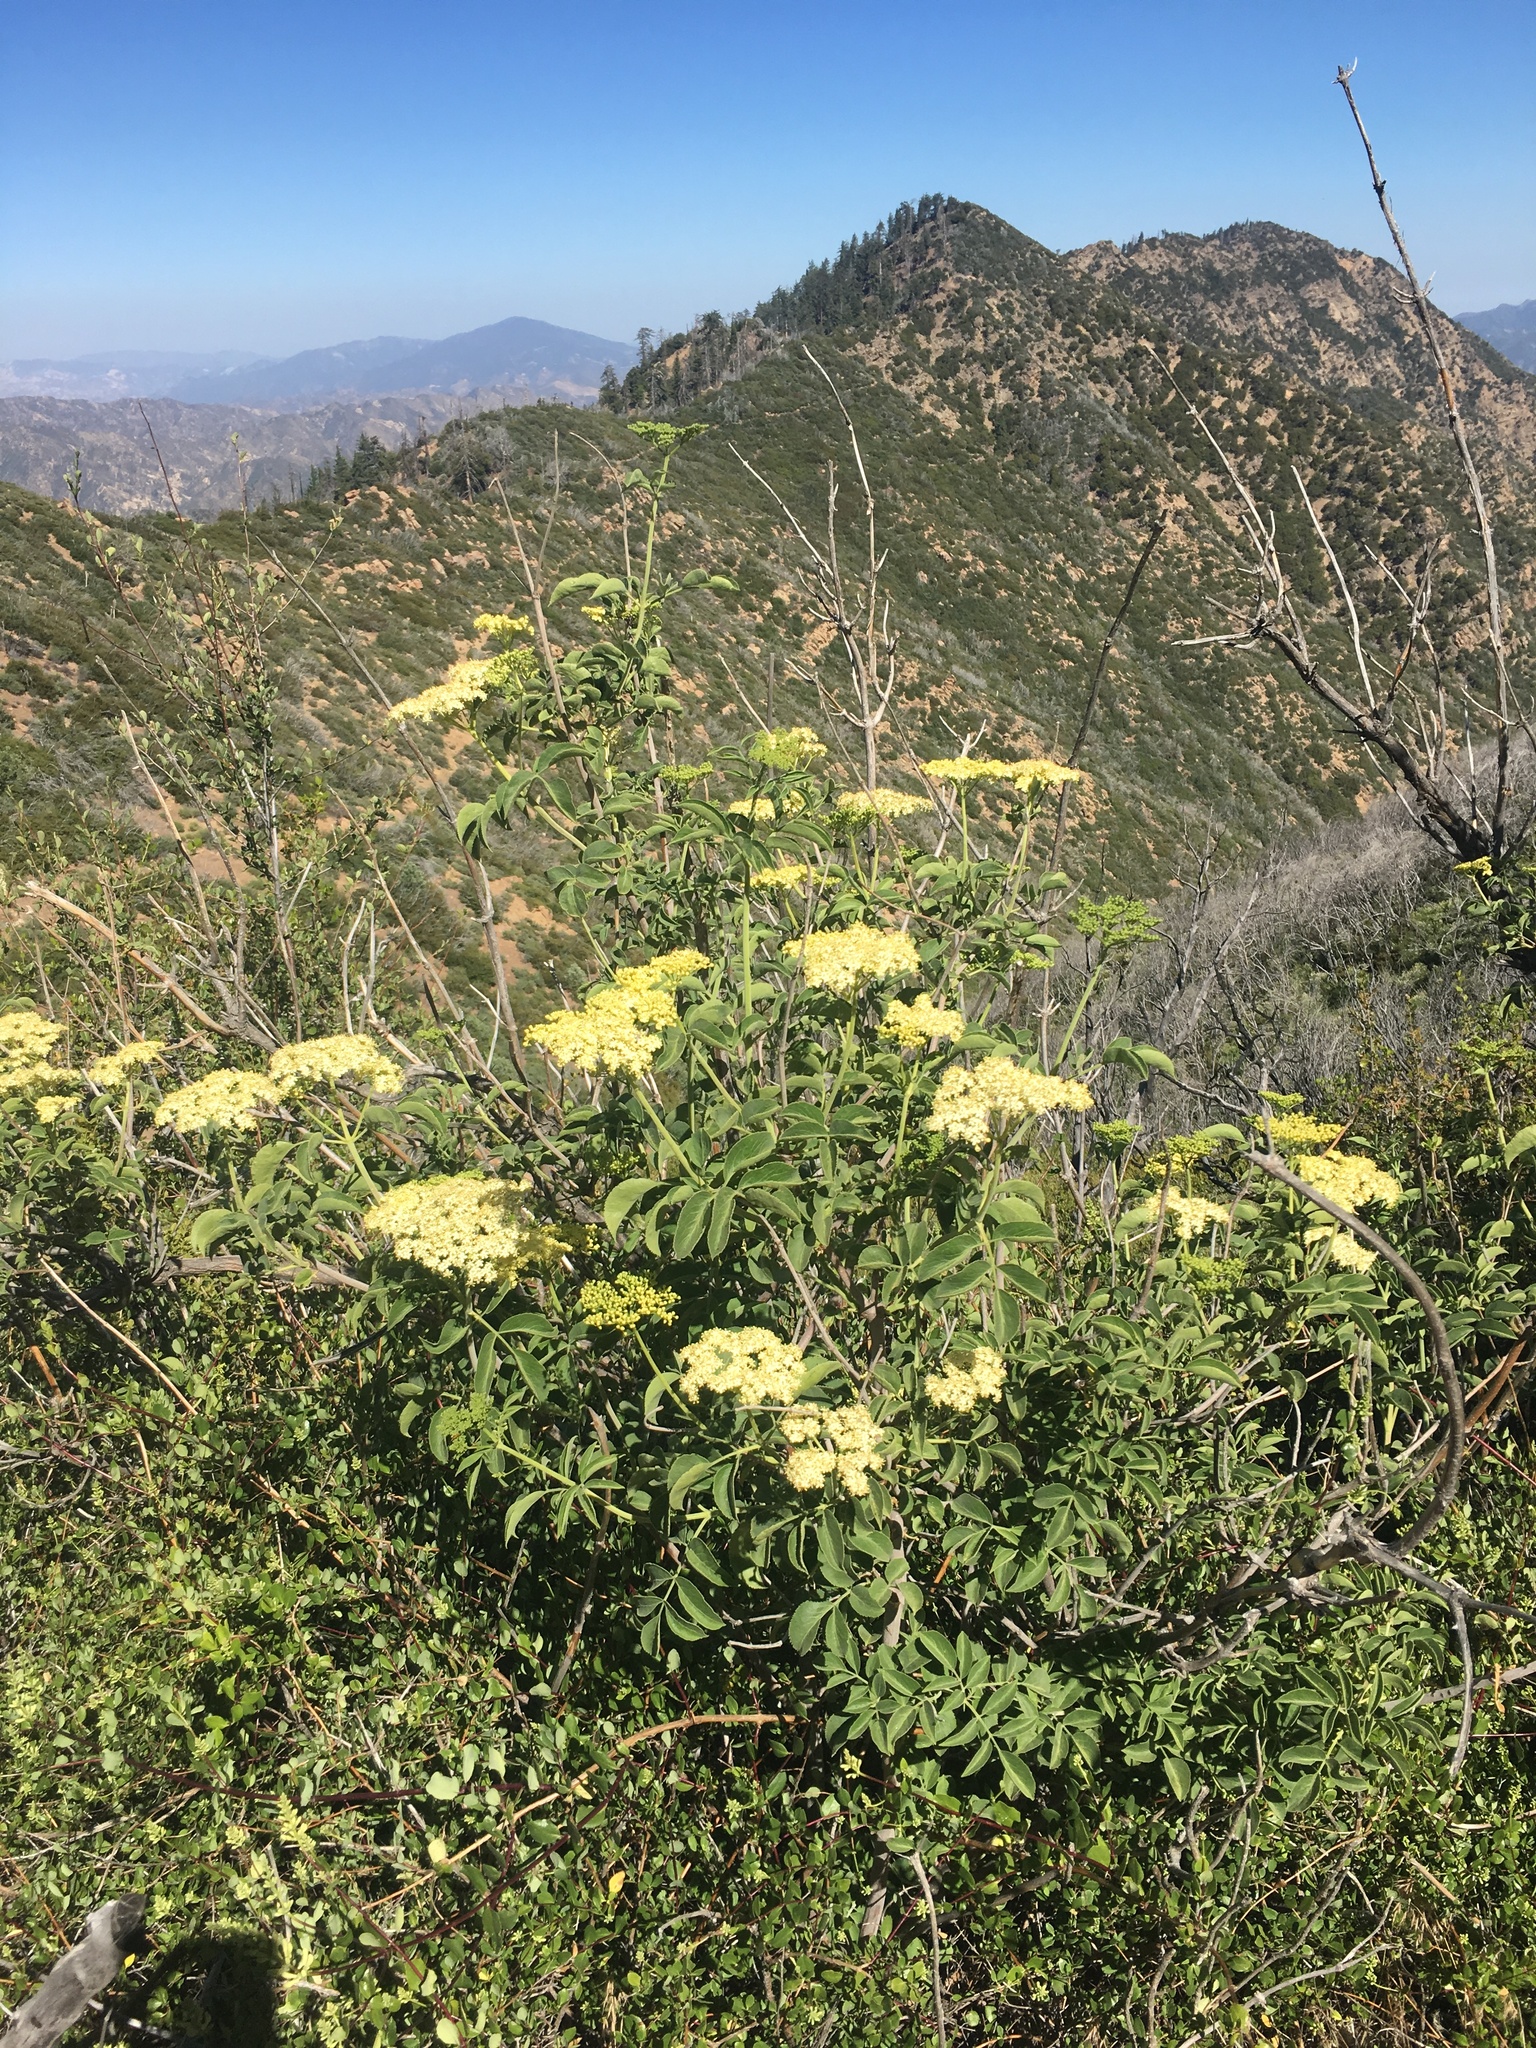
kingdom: Plantae
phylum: Tracheophyta
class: Magnoliopsida
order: Dipsacales
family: Viburnaceae
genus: Sambucus
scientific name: Sambucus cerulea
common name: Blue elder
